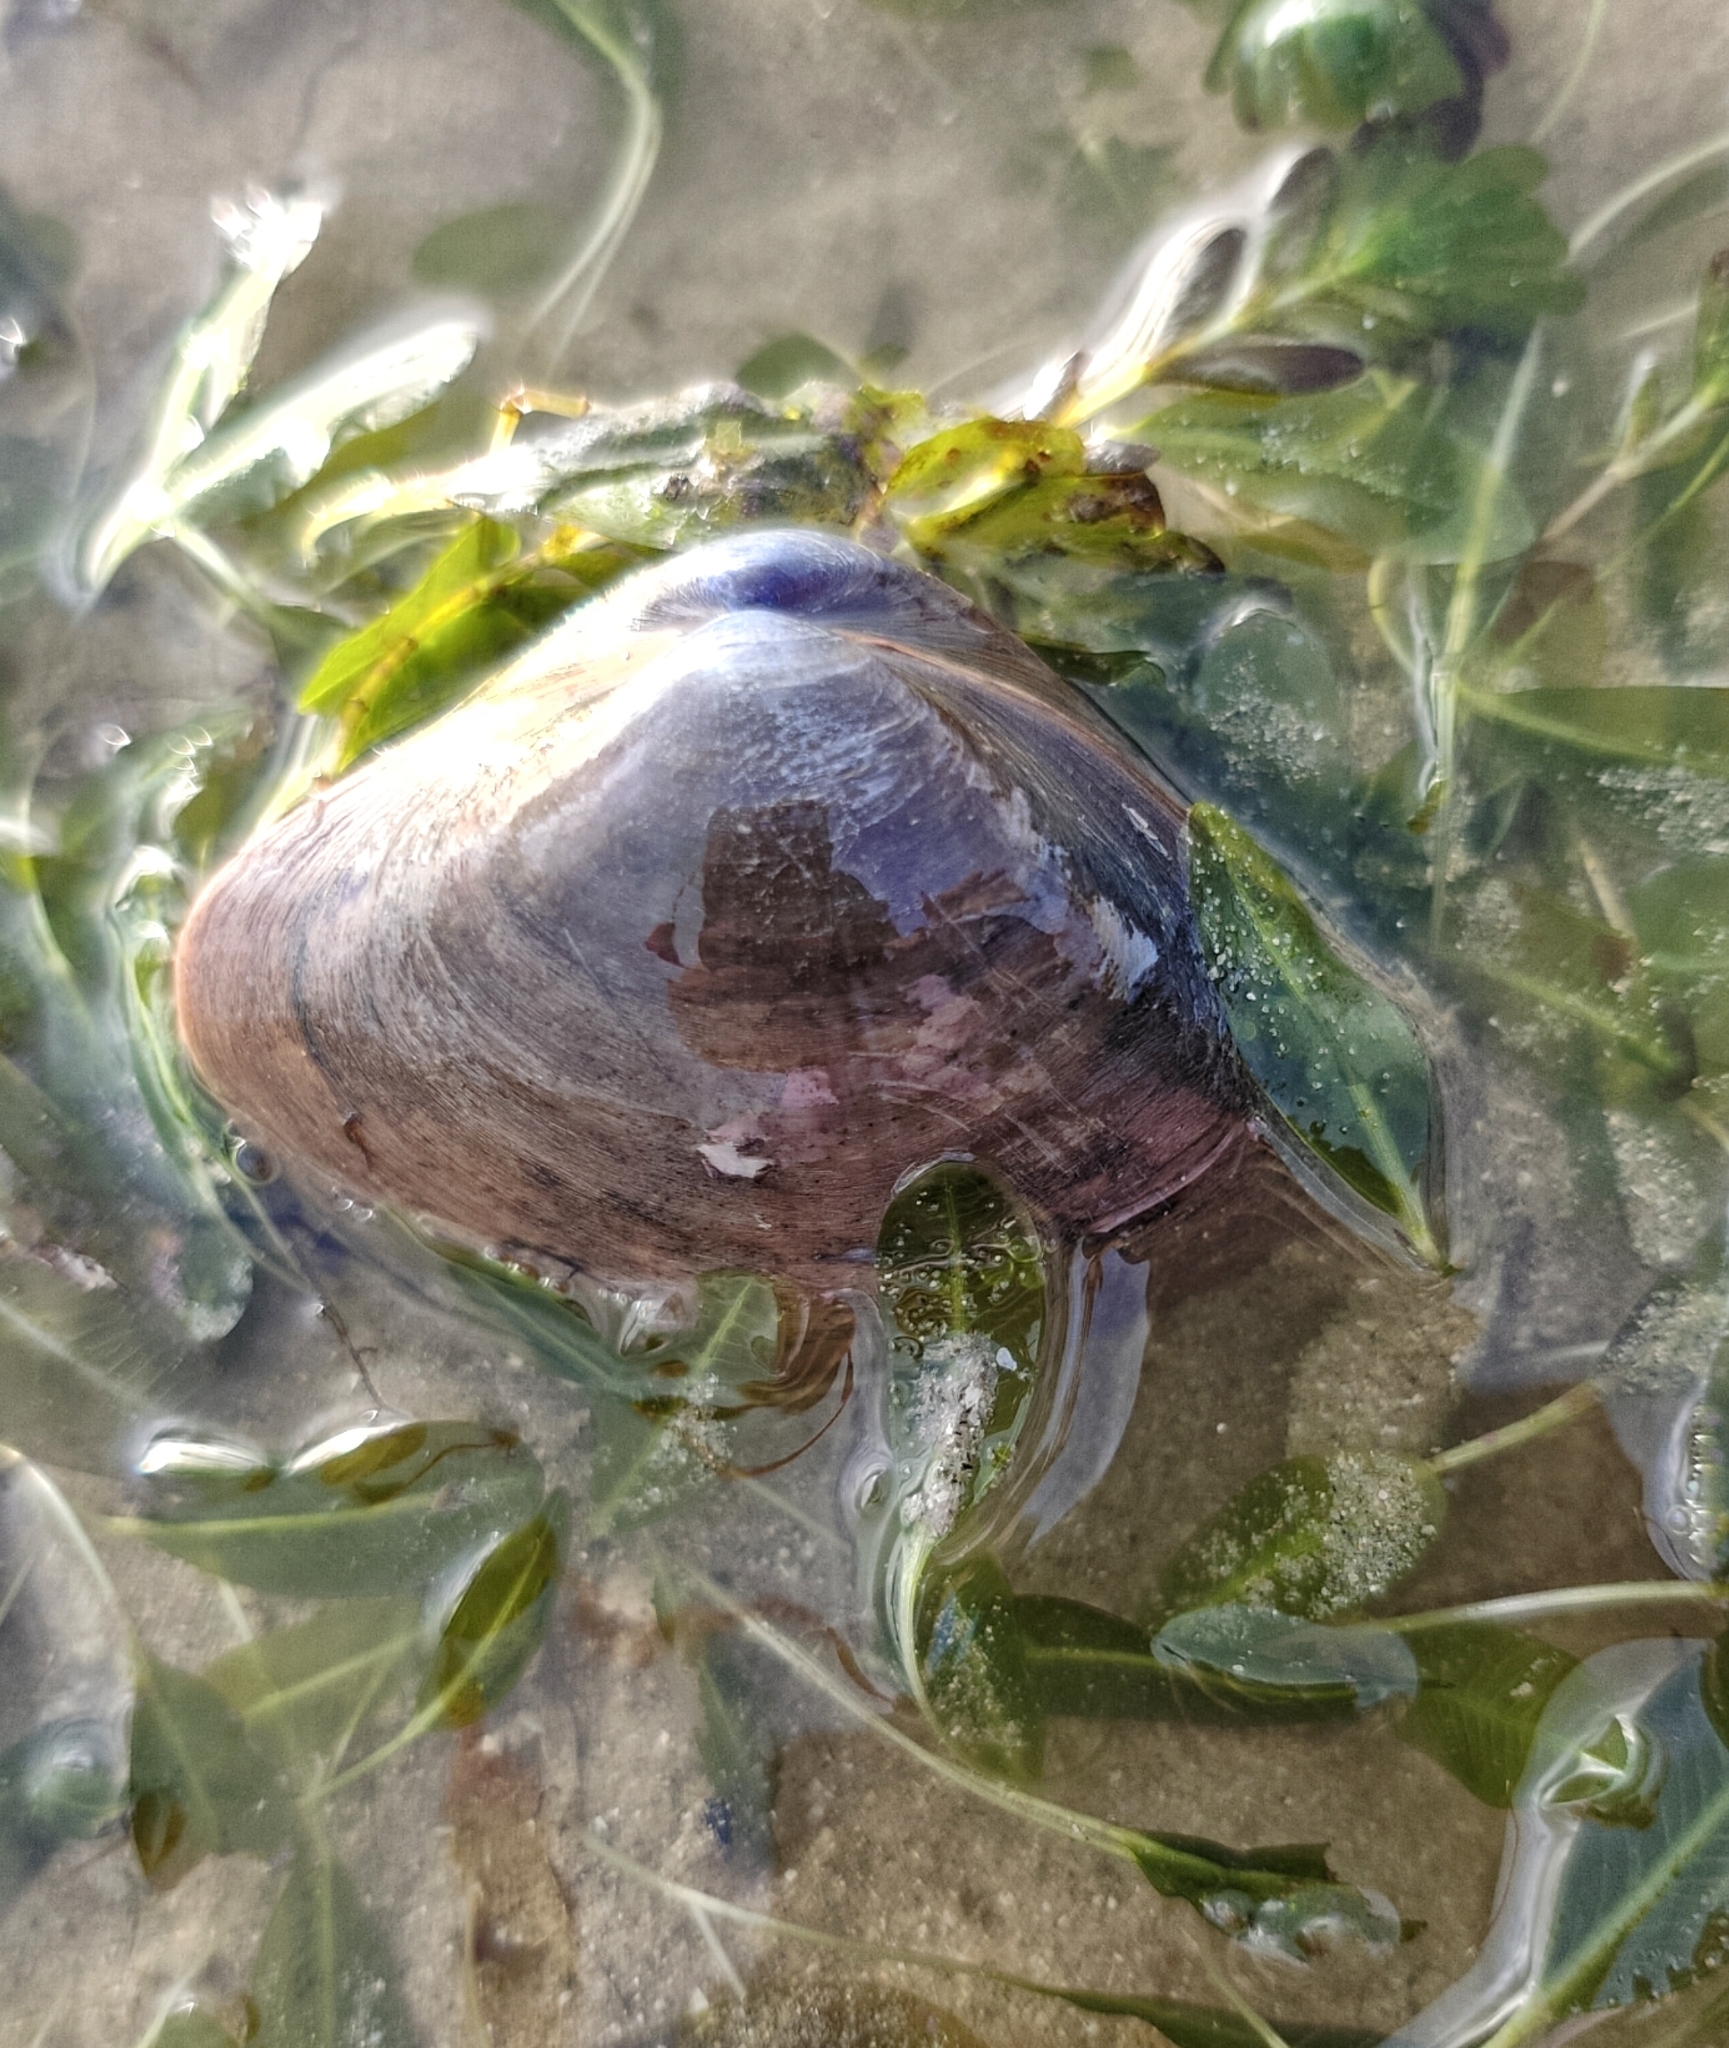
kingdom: Animalia
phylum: Mollusca
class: Bivalvia
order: Venerida
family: Mactridae
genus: Mactra
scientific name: Mactra grandis
